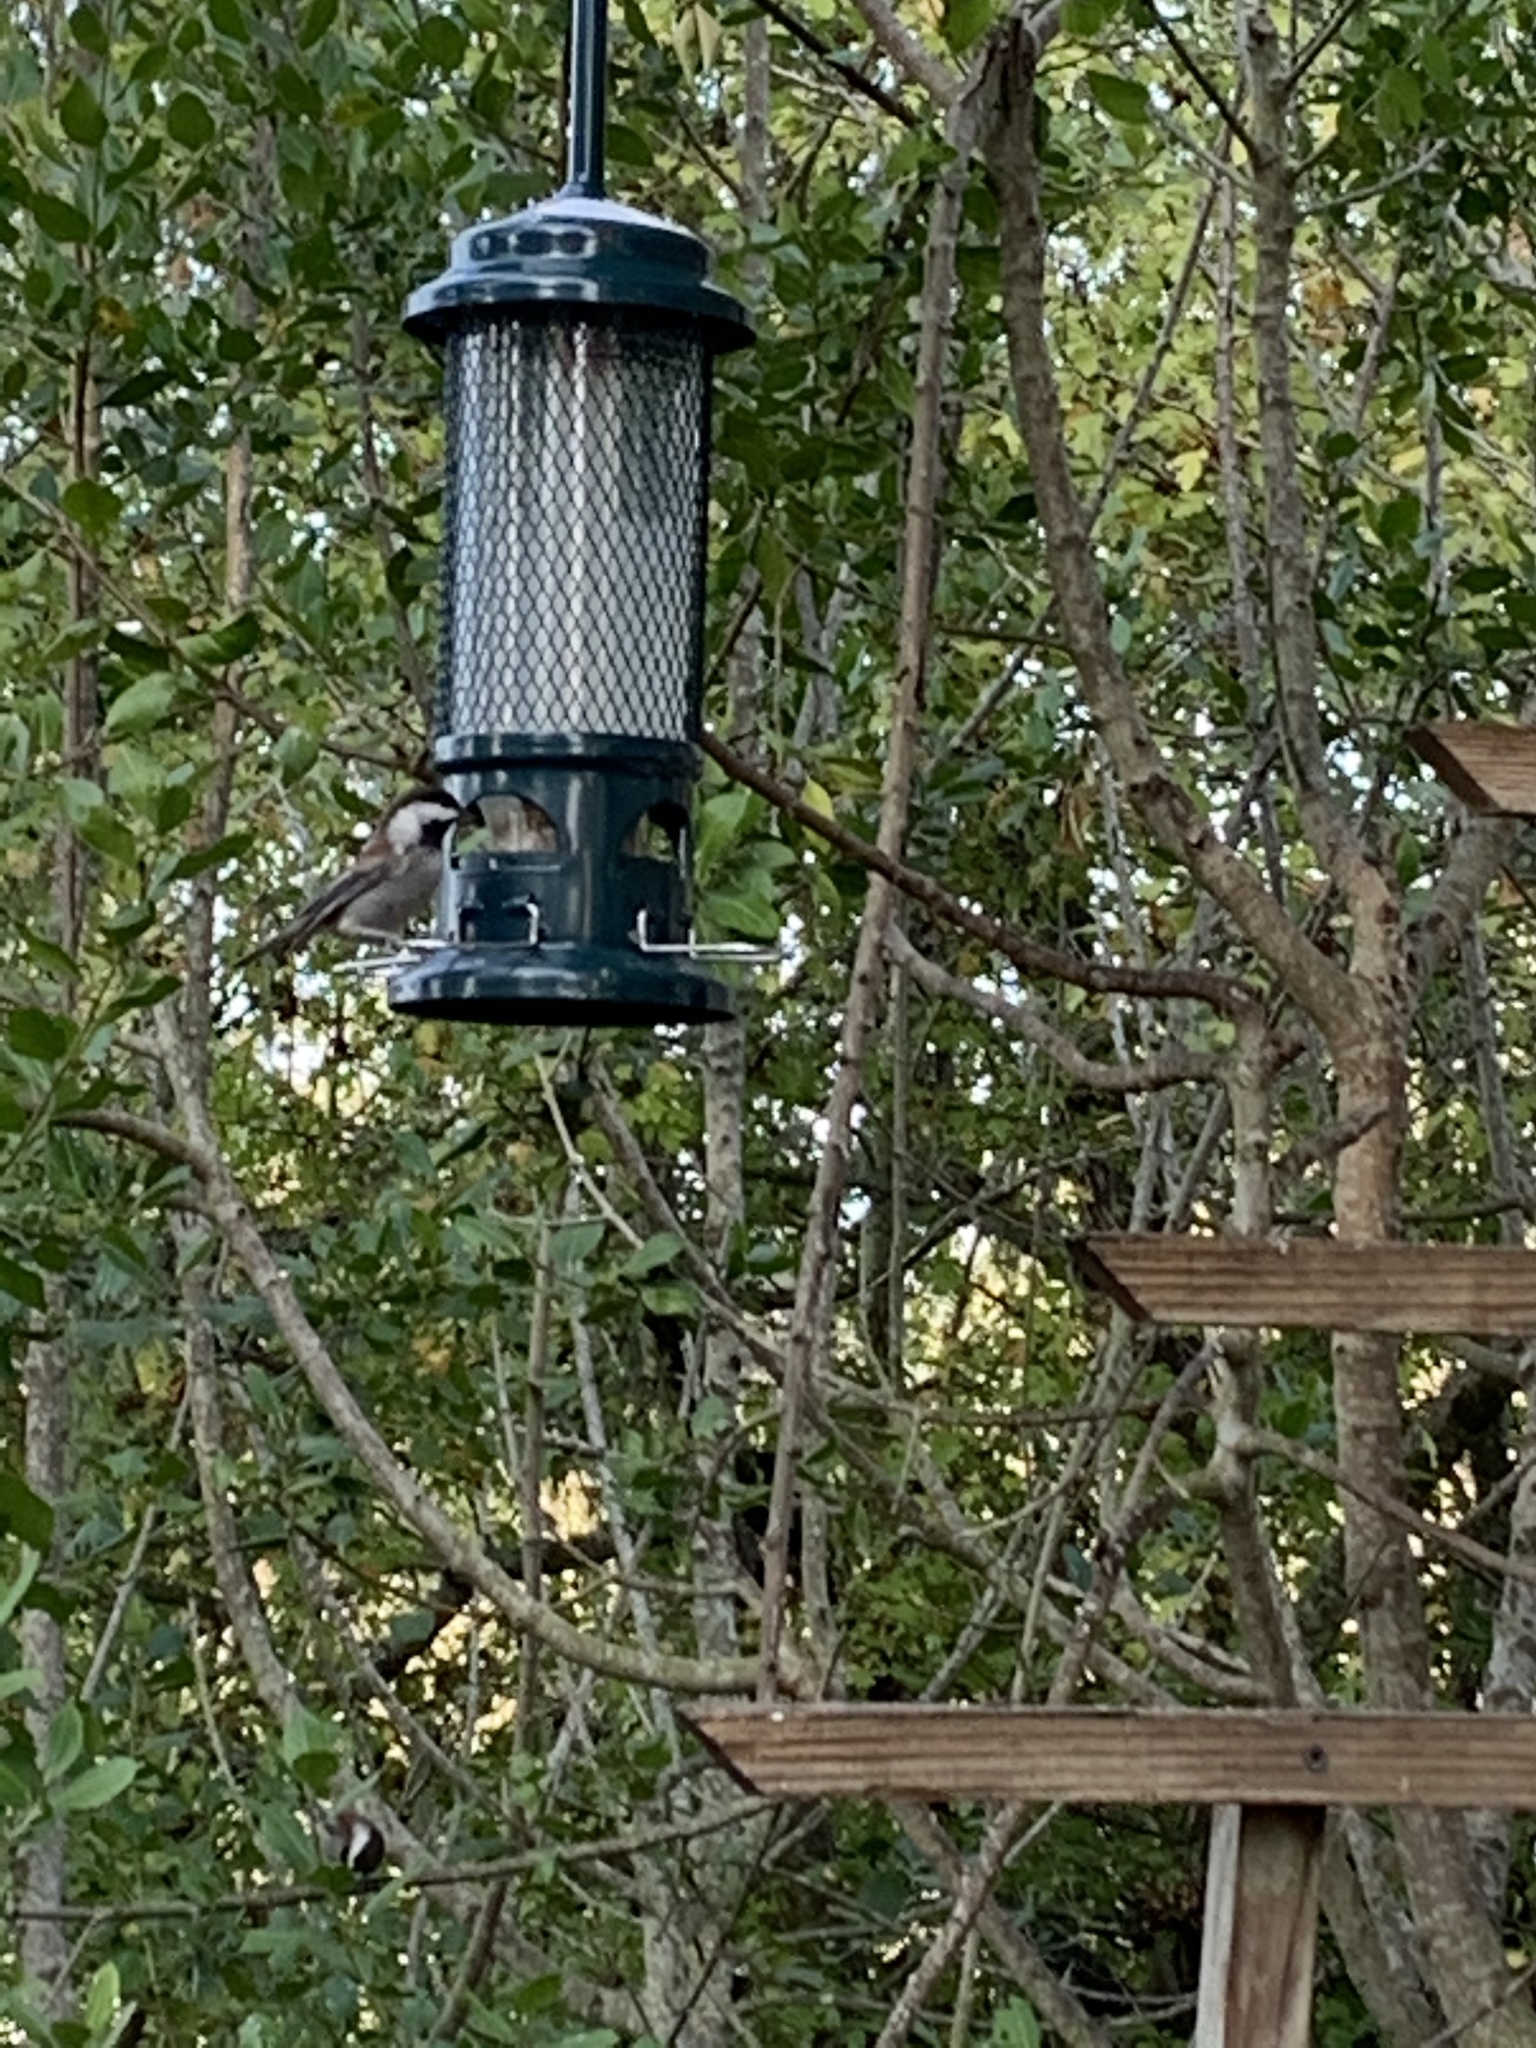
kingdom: Animalia
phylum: Chordata
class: Aves
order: Passeriformes
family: Paridae
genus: Poecile
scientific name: Poecile rufescens
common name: Chestnut-backed chickadee
